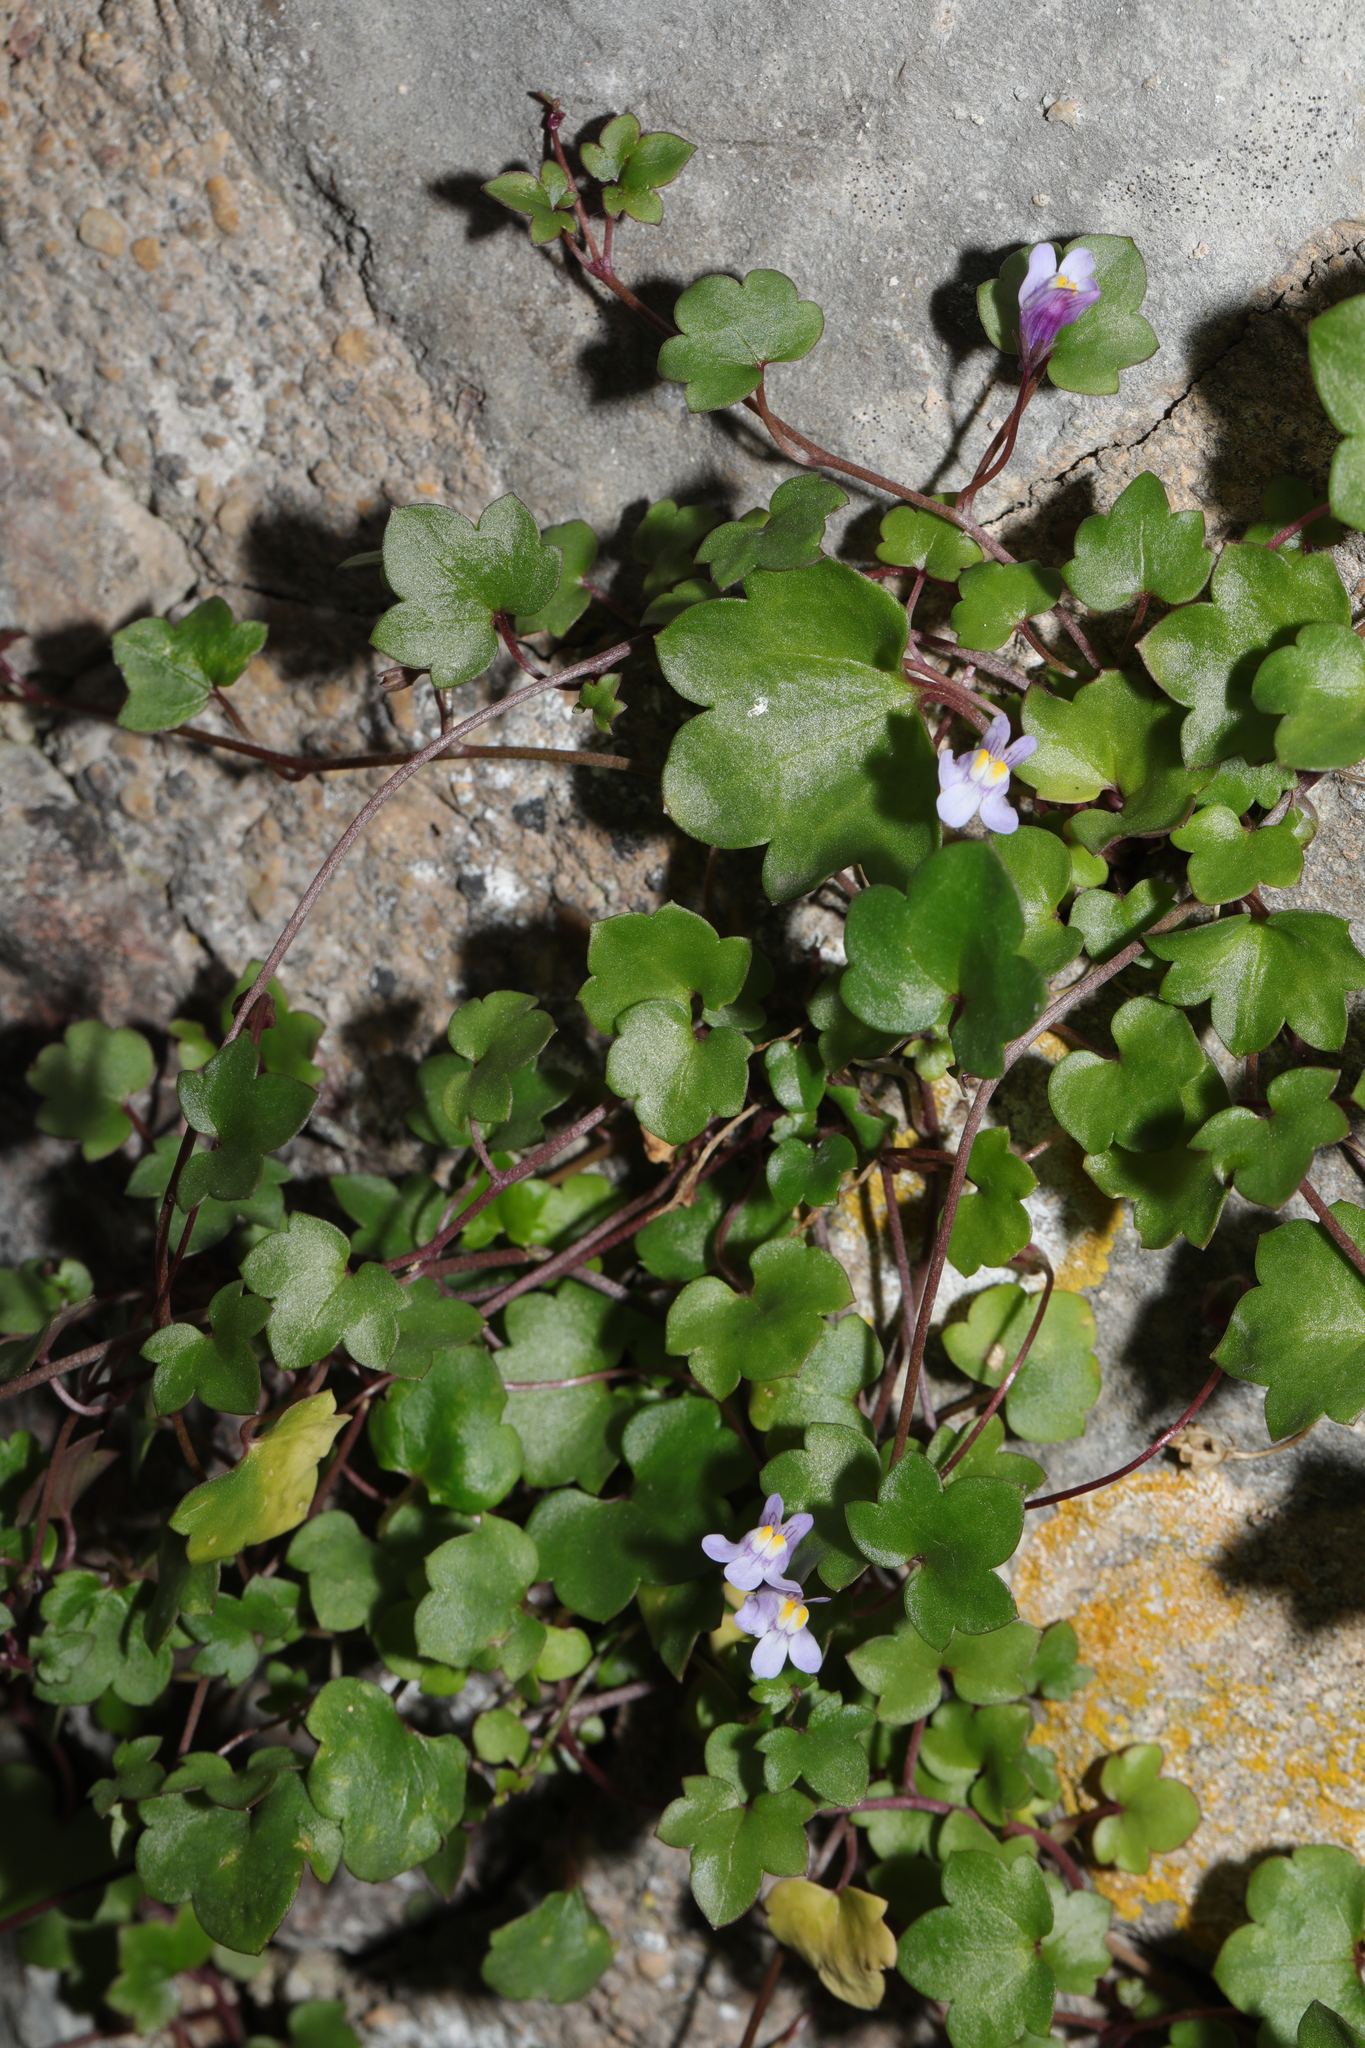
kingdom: Plantae
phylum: Tracheophyta
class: Magnoliopsida
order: Lamiales
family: Plantaginaceae
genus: Cymbalaria
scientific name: Cymbalaria muralis
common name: Ivy-leaved toadflax
